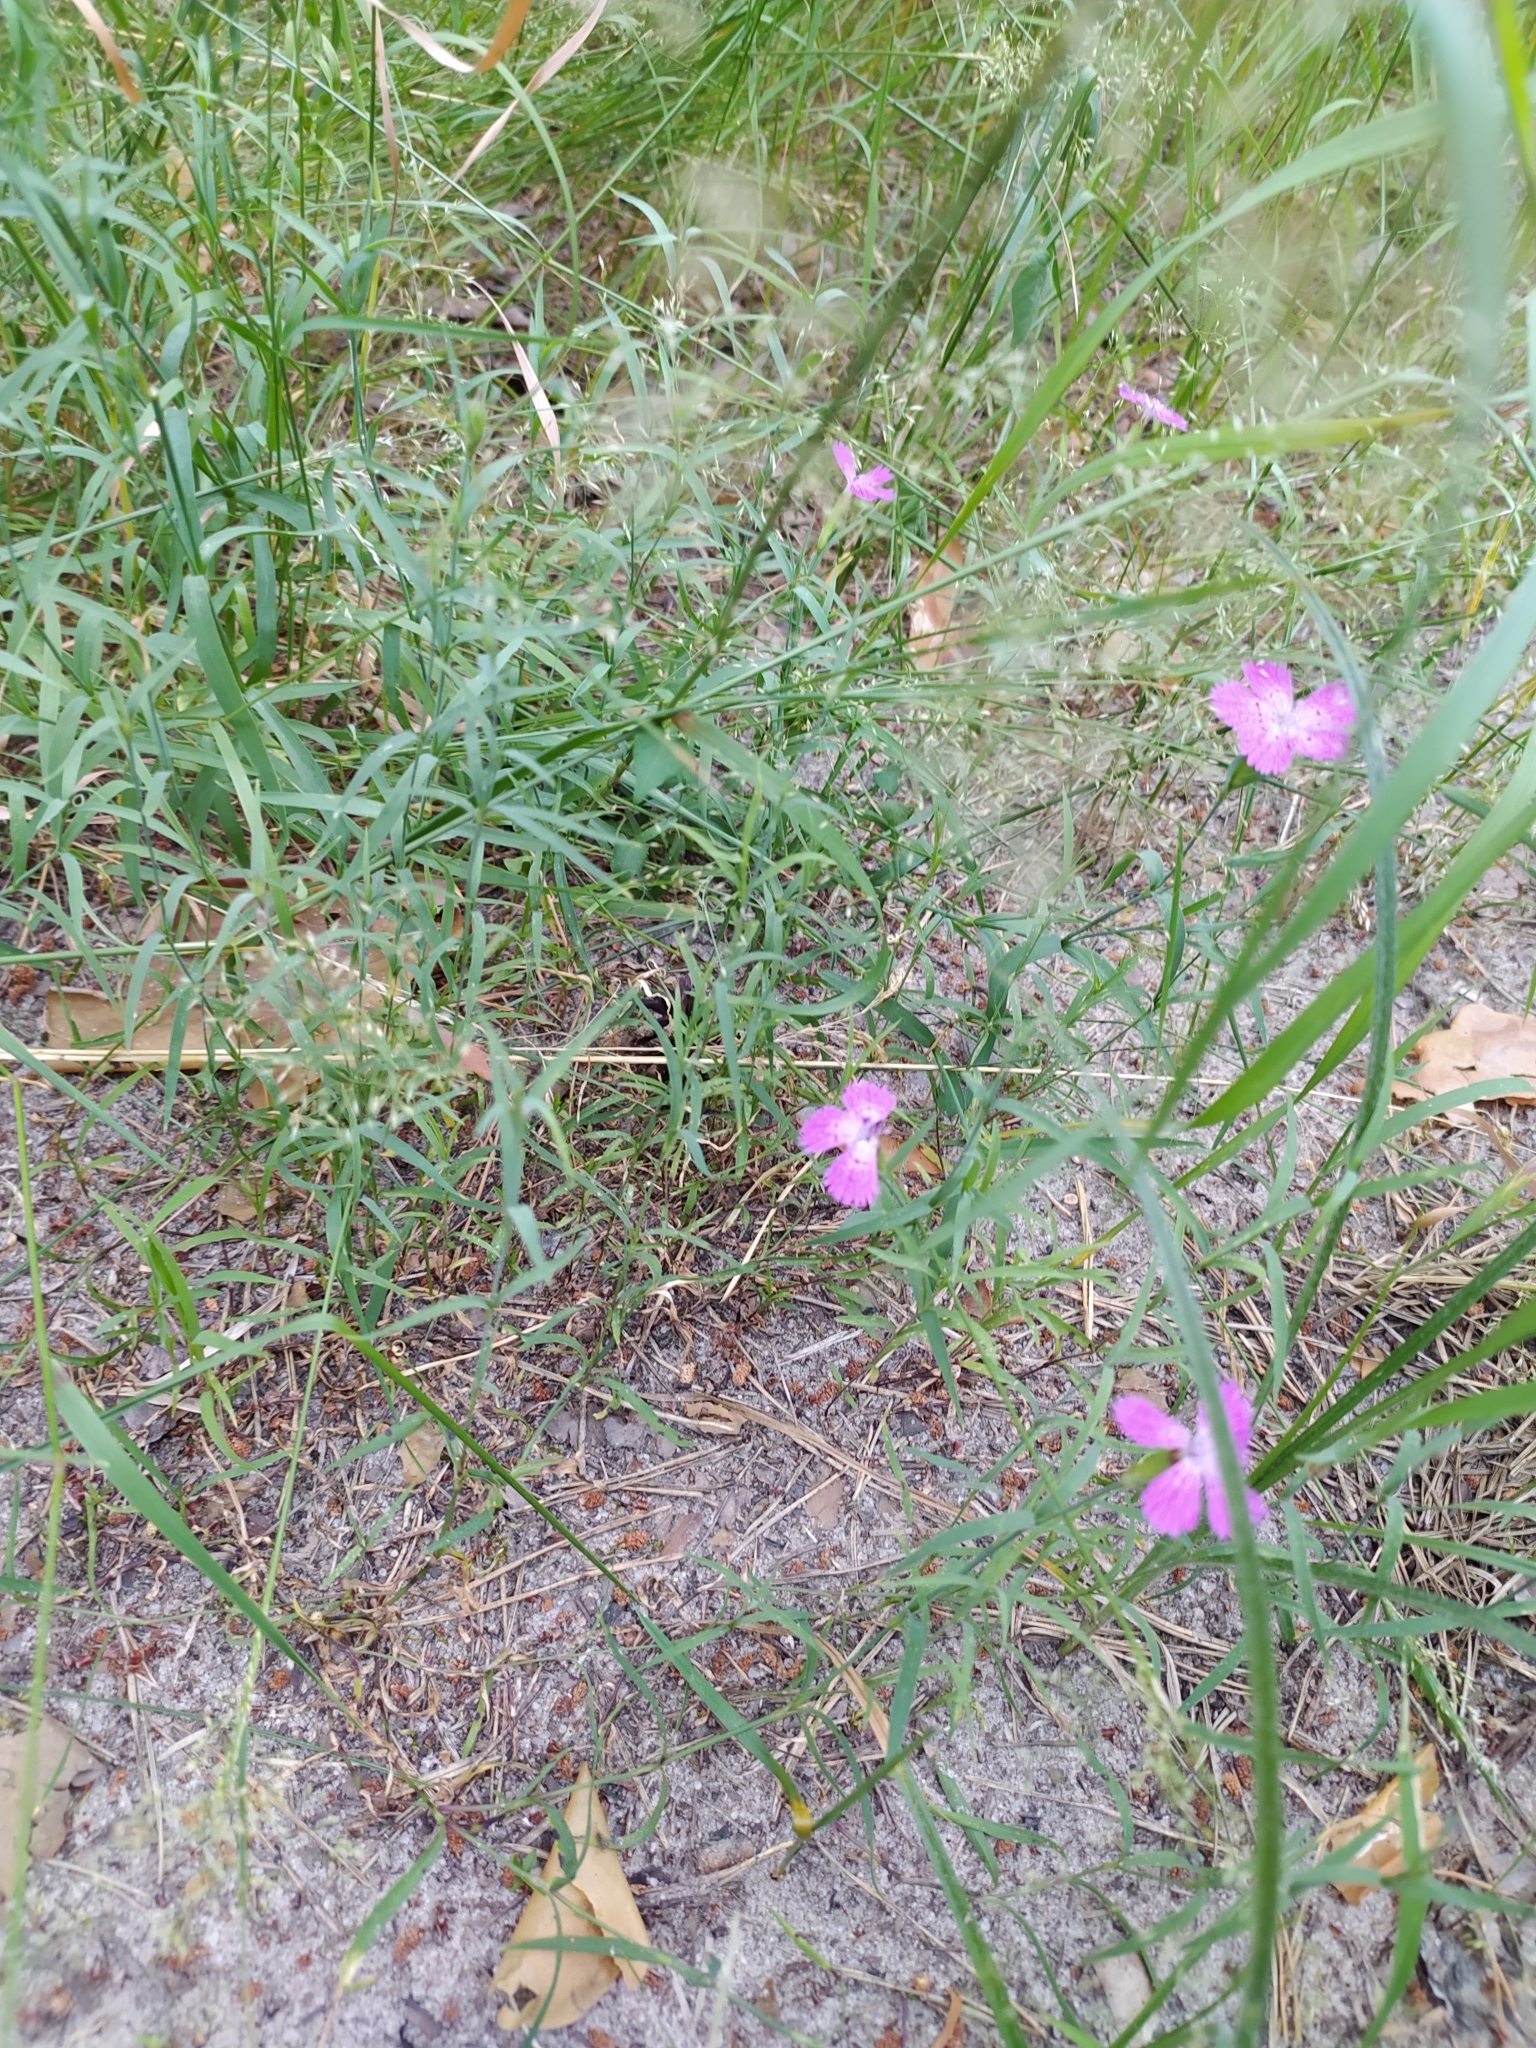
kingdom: Plantae
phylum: Tracheophyta
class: Magnoliopsida
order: Caryophyllales
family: Caryophyllaceae
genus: Dianthus
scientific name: Dianthus chinensis
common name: Rainbow pink
